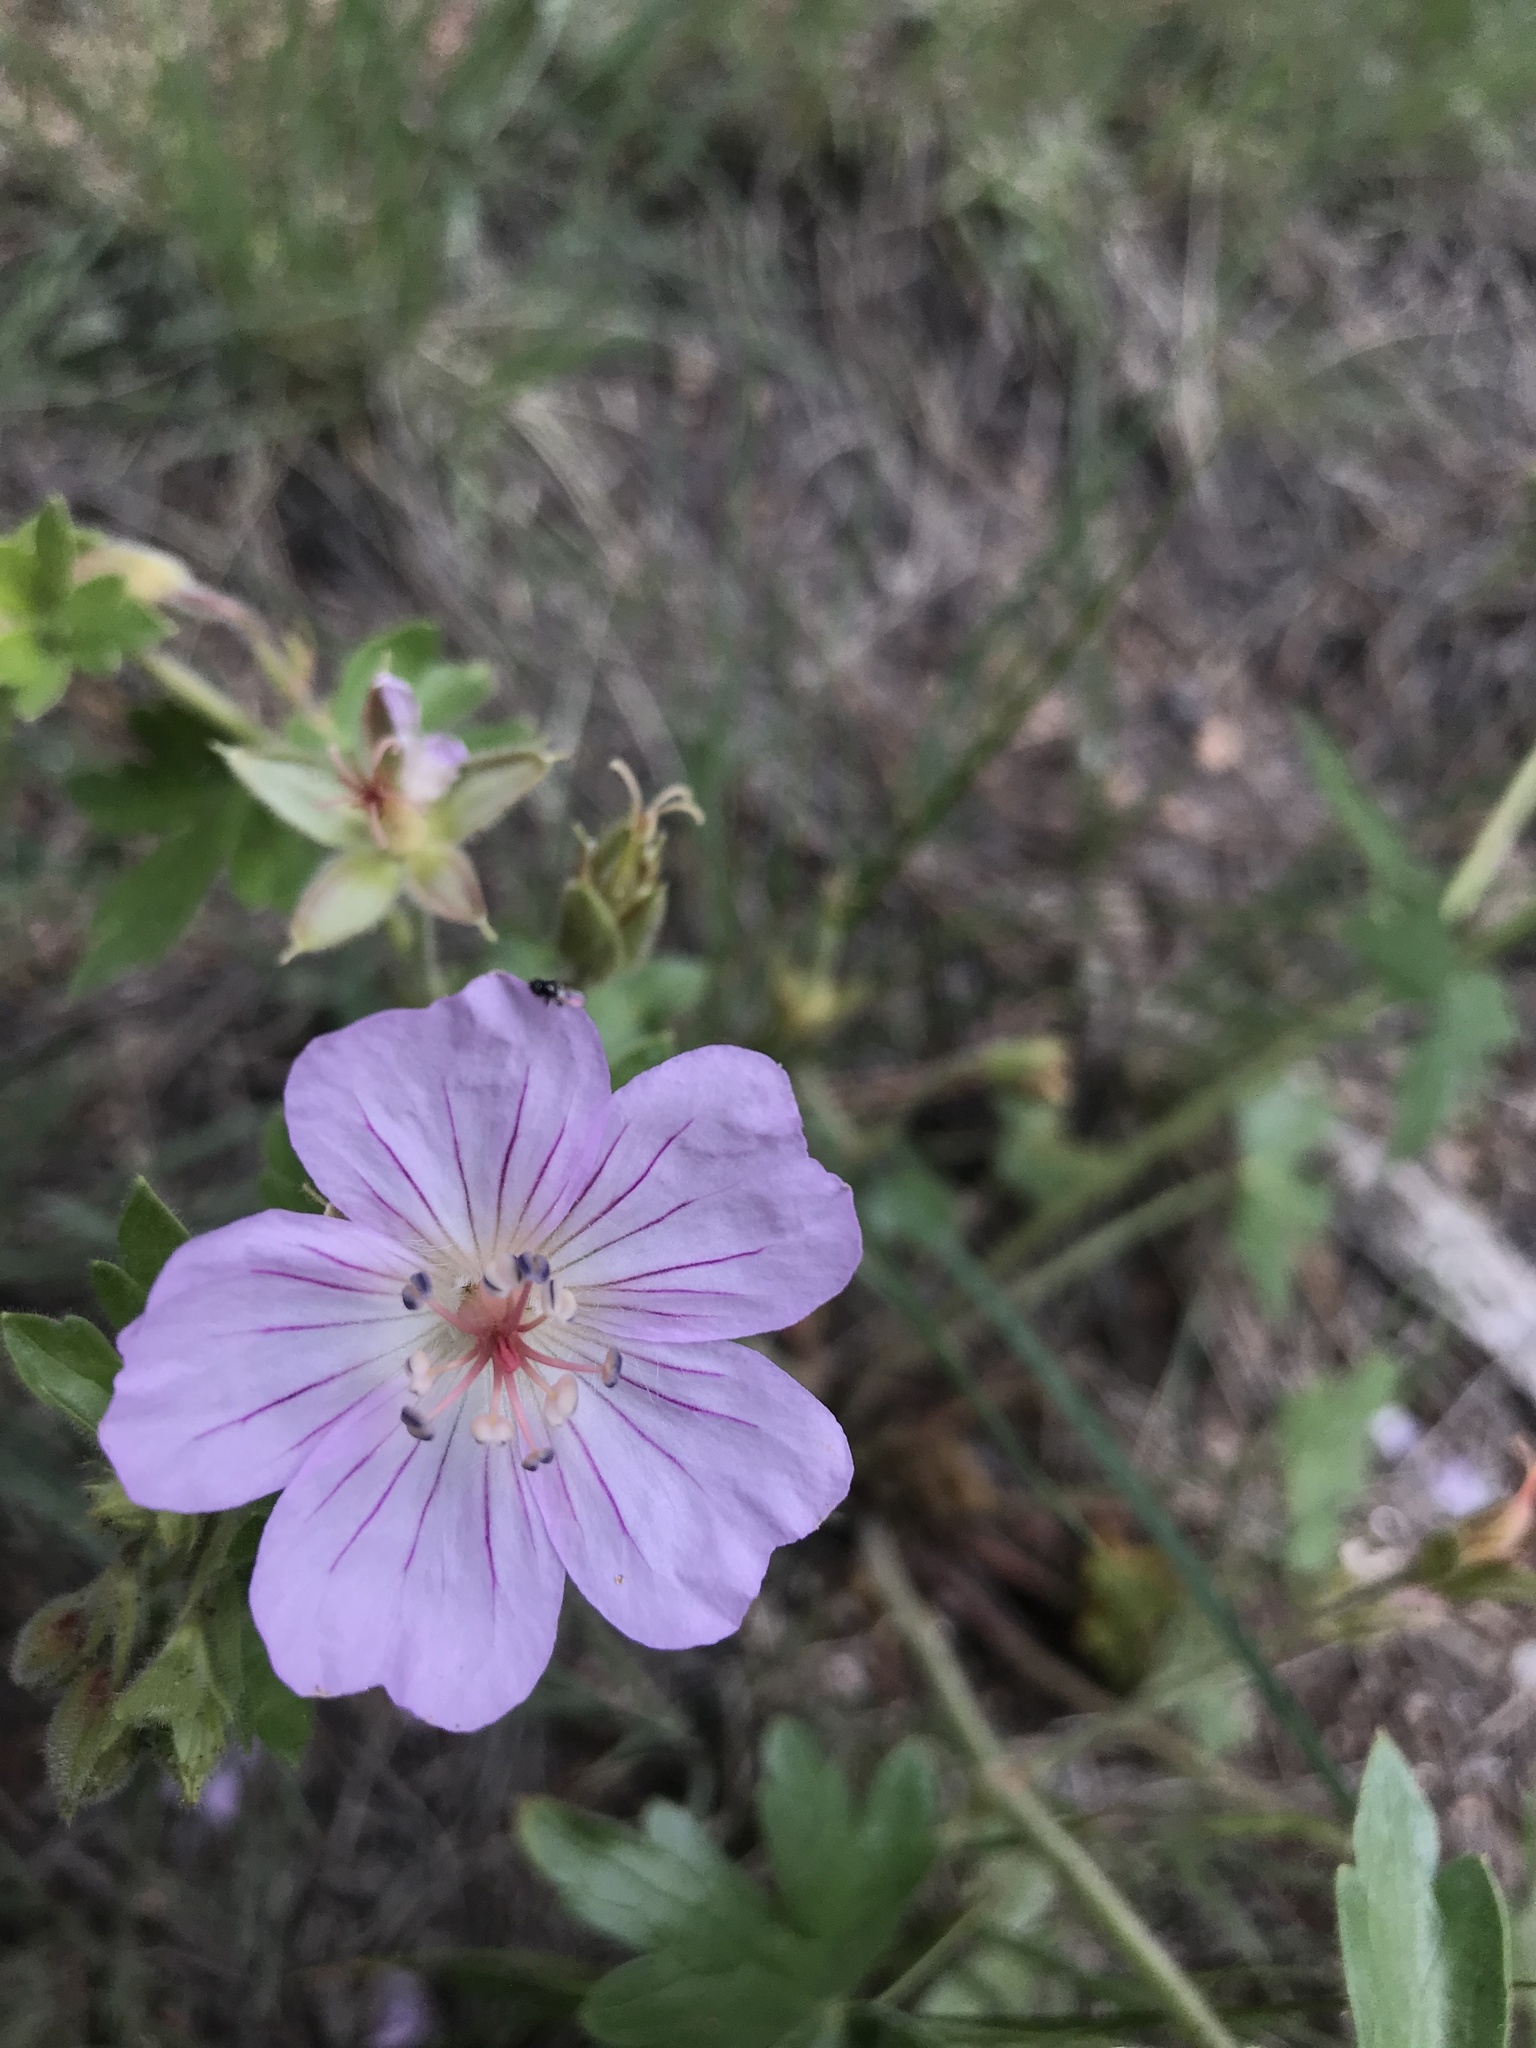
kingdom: Plantae
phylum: Tracheophyta
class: Magnoliopsida
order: Geraniales
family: Geraniaceae
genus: Geranium
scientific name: Geranium caespitosum
